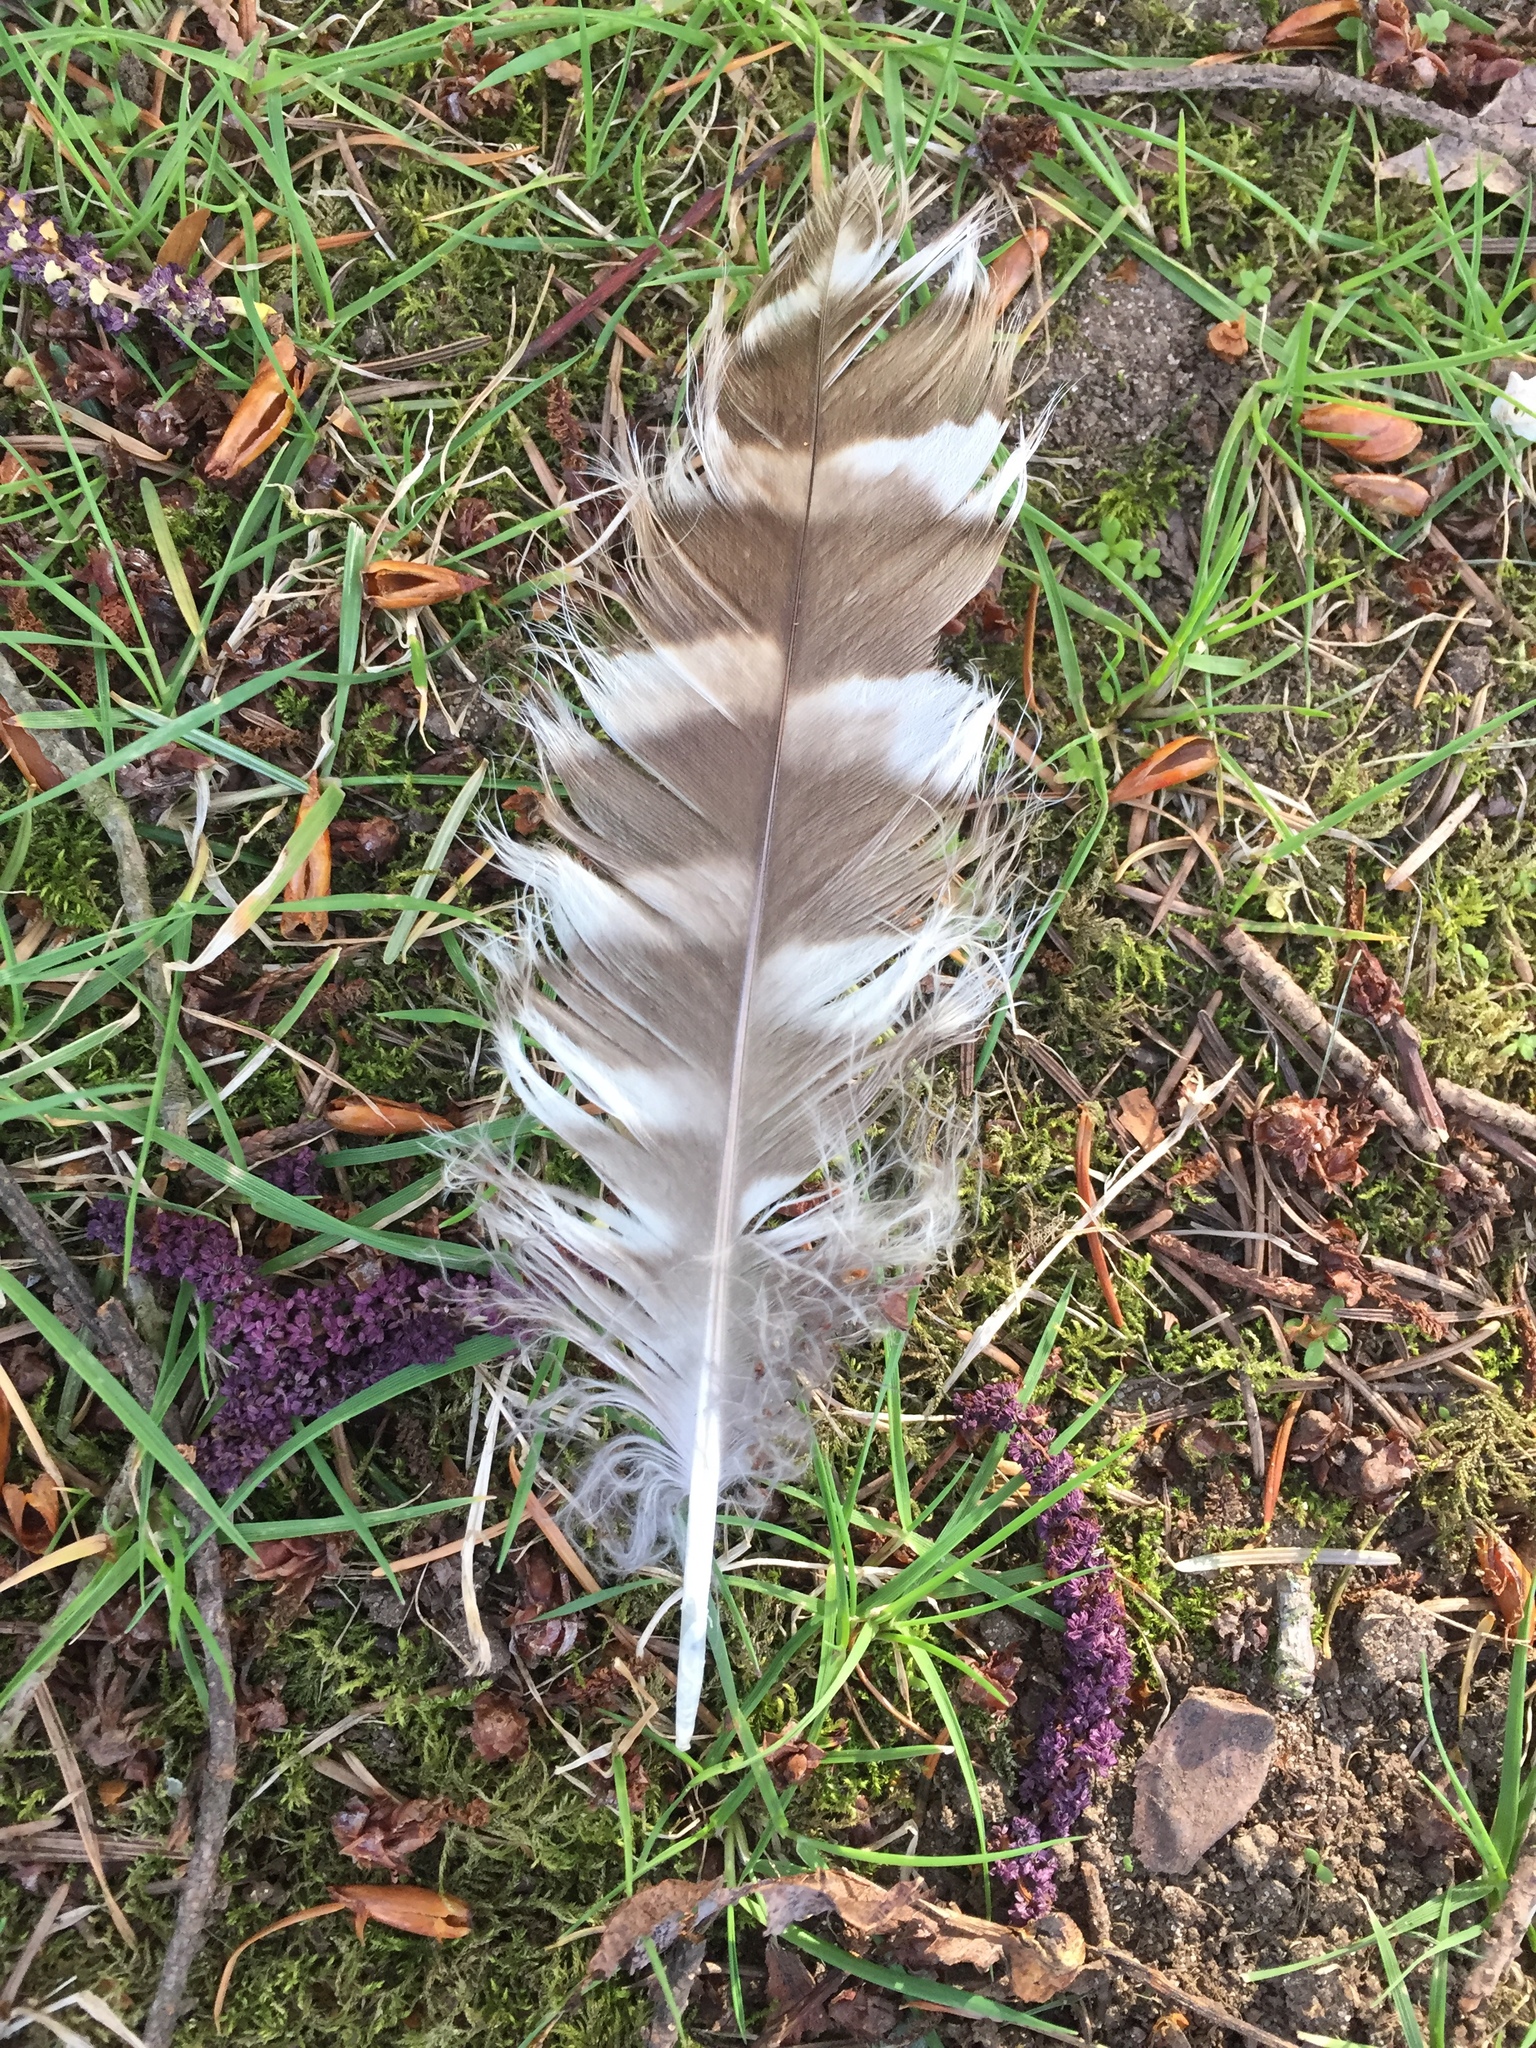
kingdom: Animalia
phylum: Chordata
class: Aves
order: Strigiformes
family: Strigidae
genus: Strix
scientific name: Strix varia
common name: Barred owl
